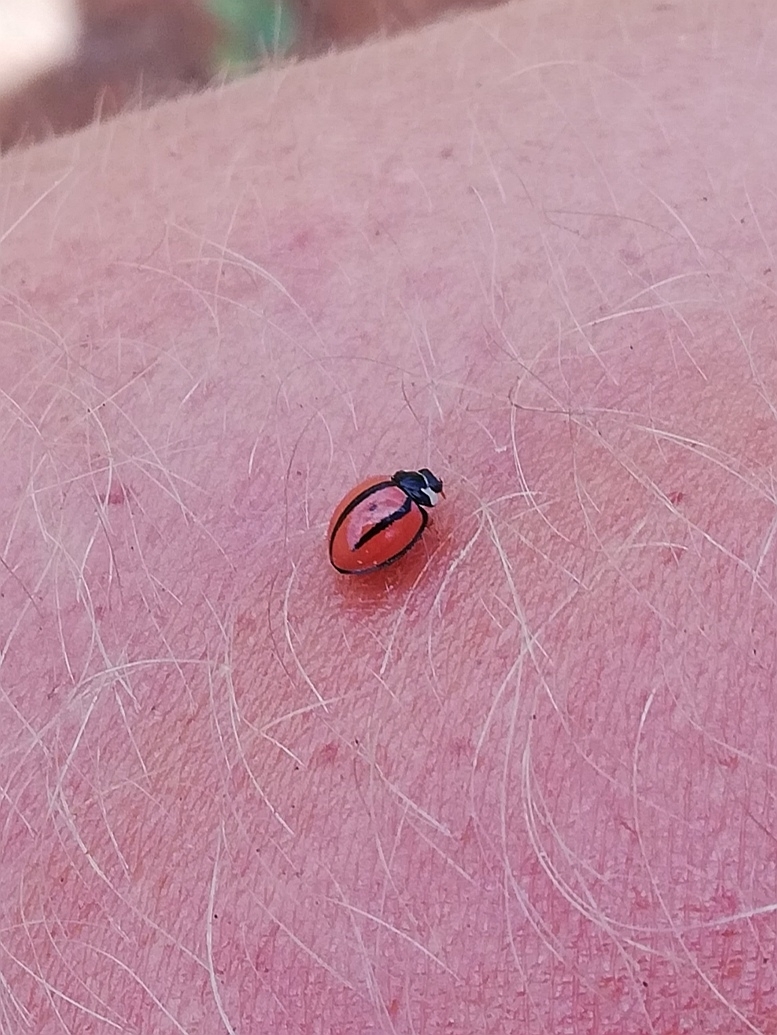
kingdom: Animalia
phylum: Arthropoda
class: Insecta
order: Coleoptera
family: Coccinellidae
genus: Cheilomenes
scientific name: Cheilomenes propinqua
